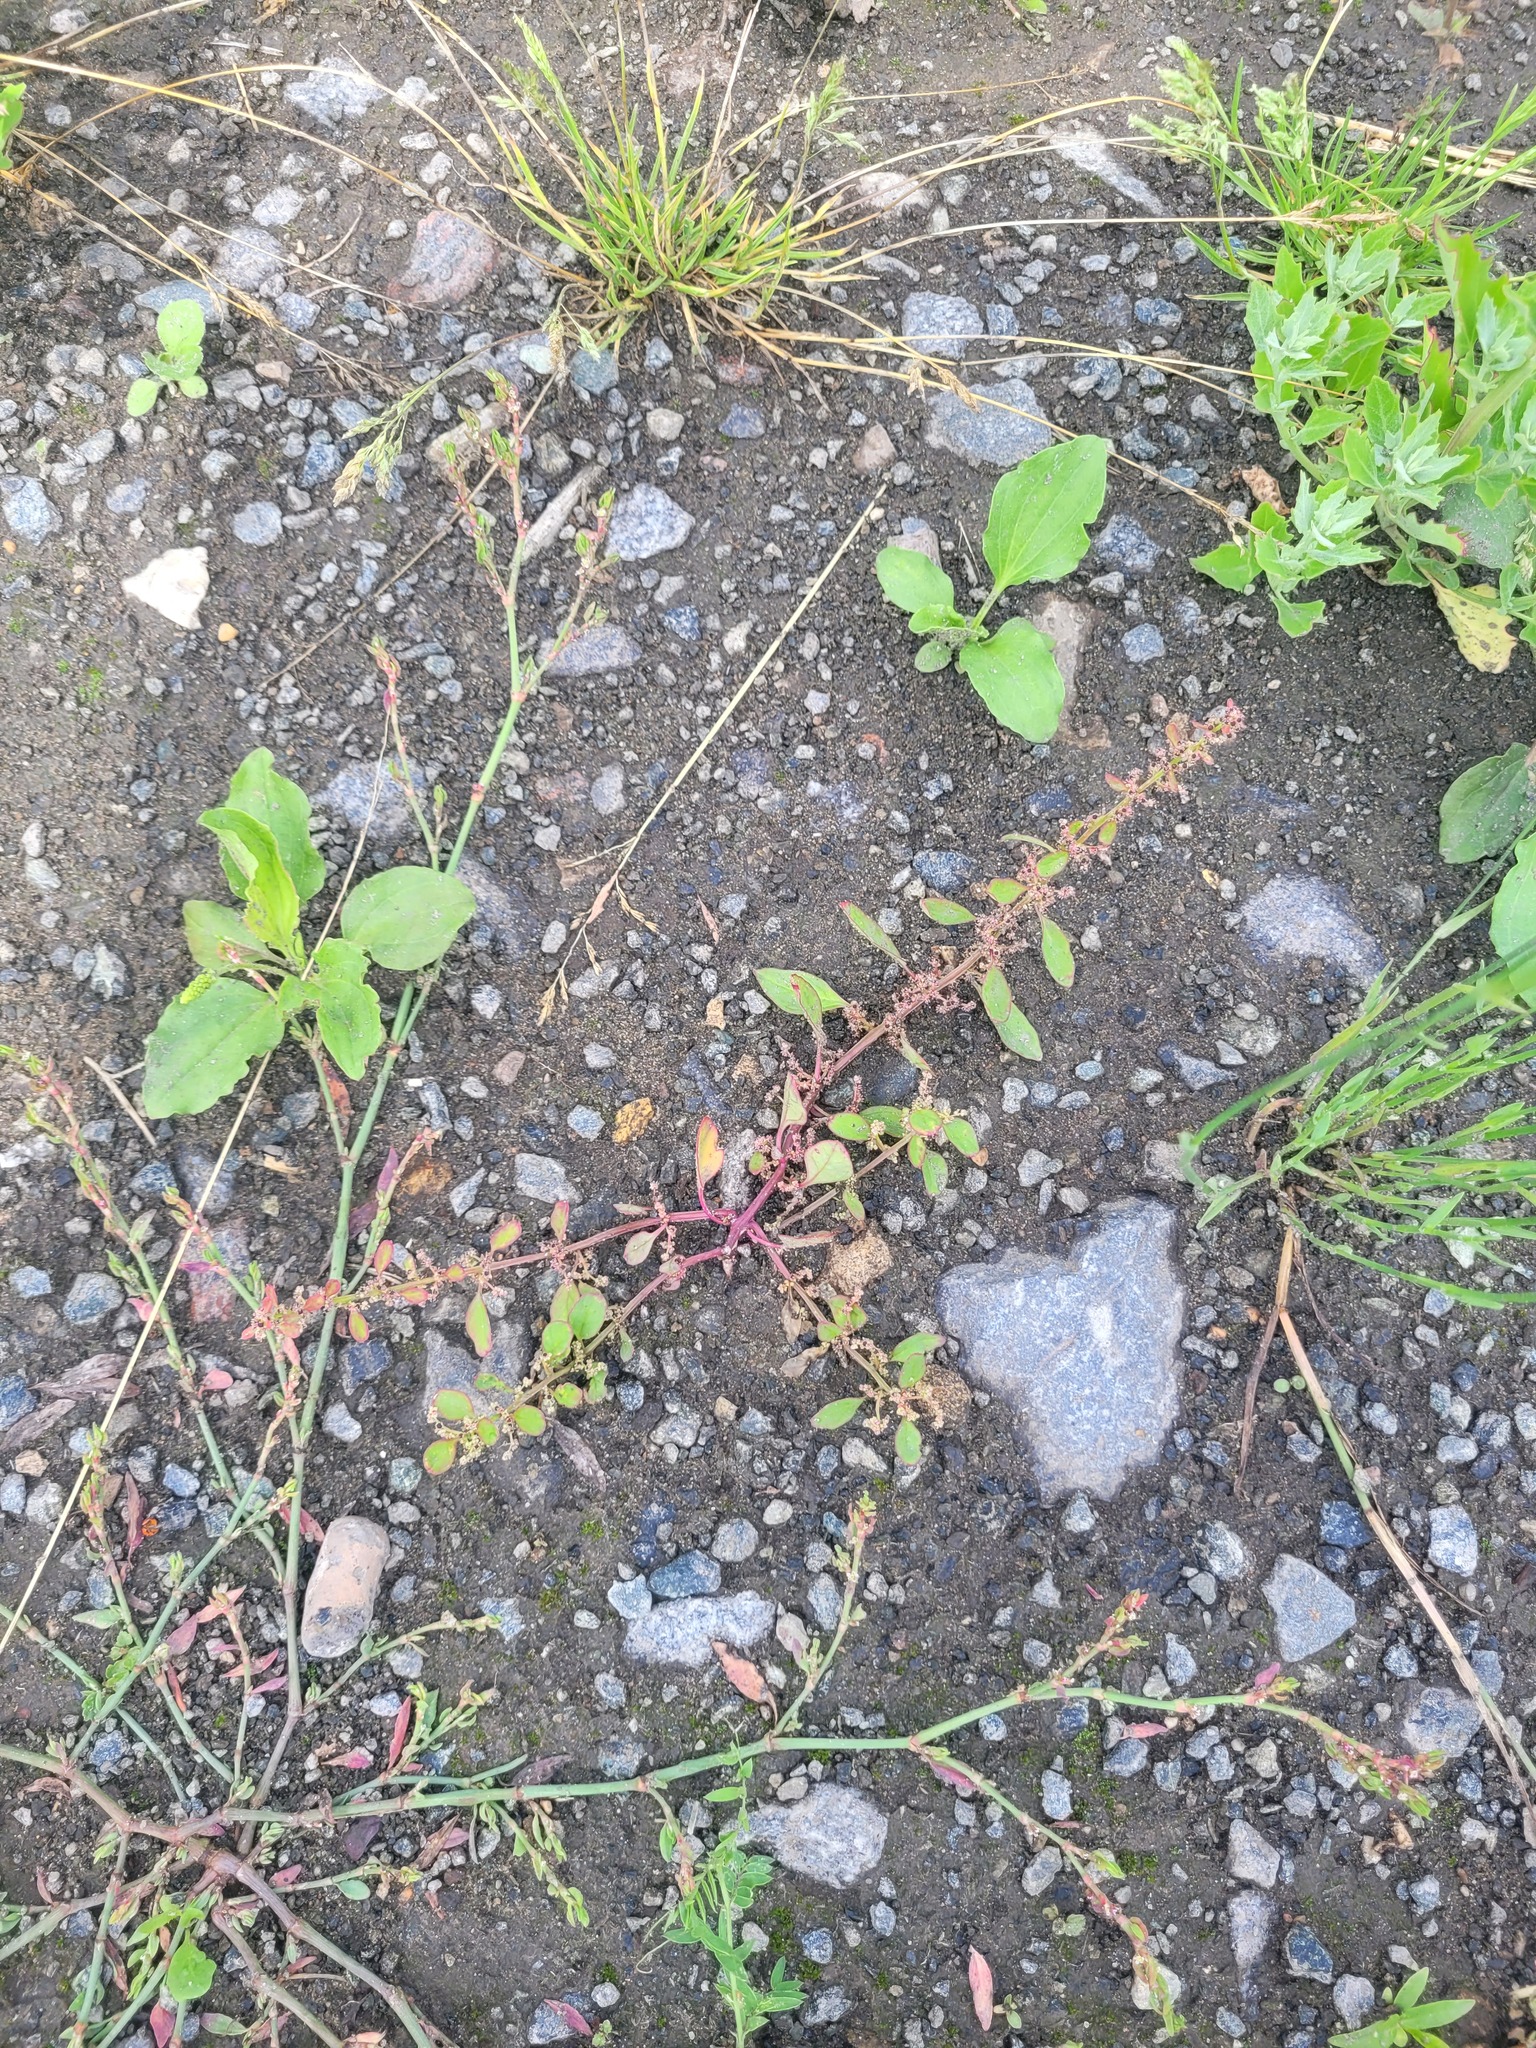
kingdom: Plantae
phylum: Tracheophyta
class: Magnoliopsida
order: Caryophyllales
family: Amaranthaceae
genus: Lipandra
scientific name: Lipandra polysperma
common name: Many-seed goosefoot
